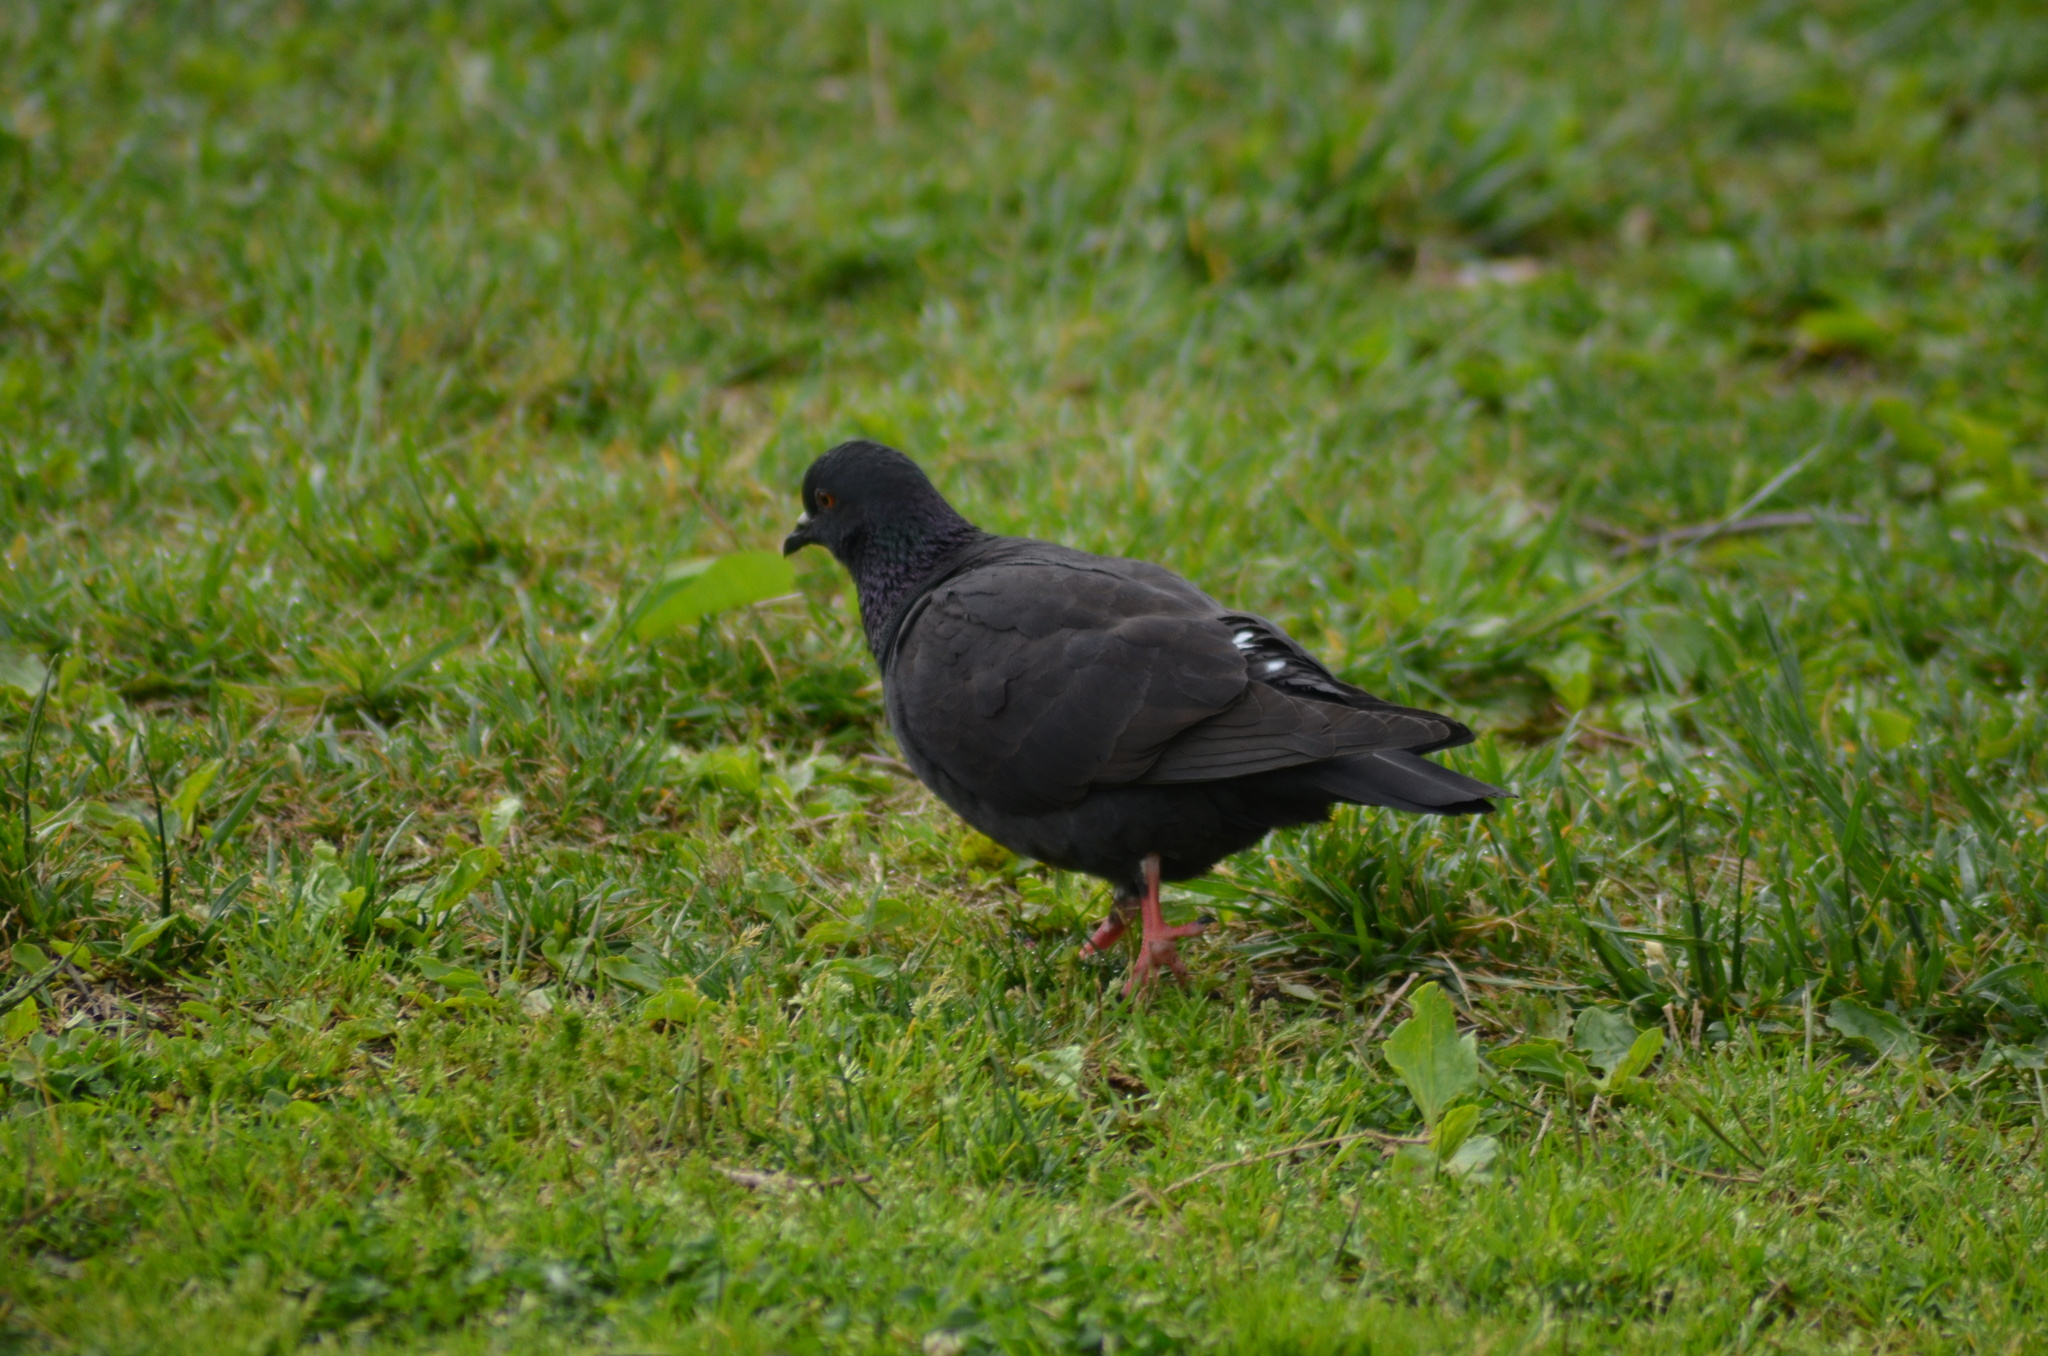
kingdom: Animalia
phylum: Chordata
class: Aves
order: Columbiformes
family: Columbidae
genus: Columba
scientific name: Columba livia
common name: Rock pigeon
